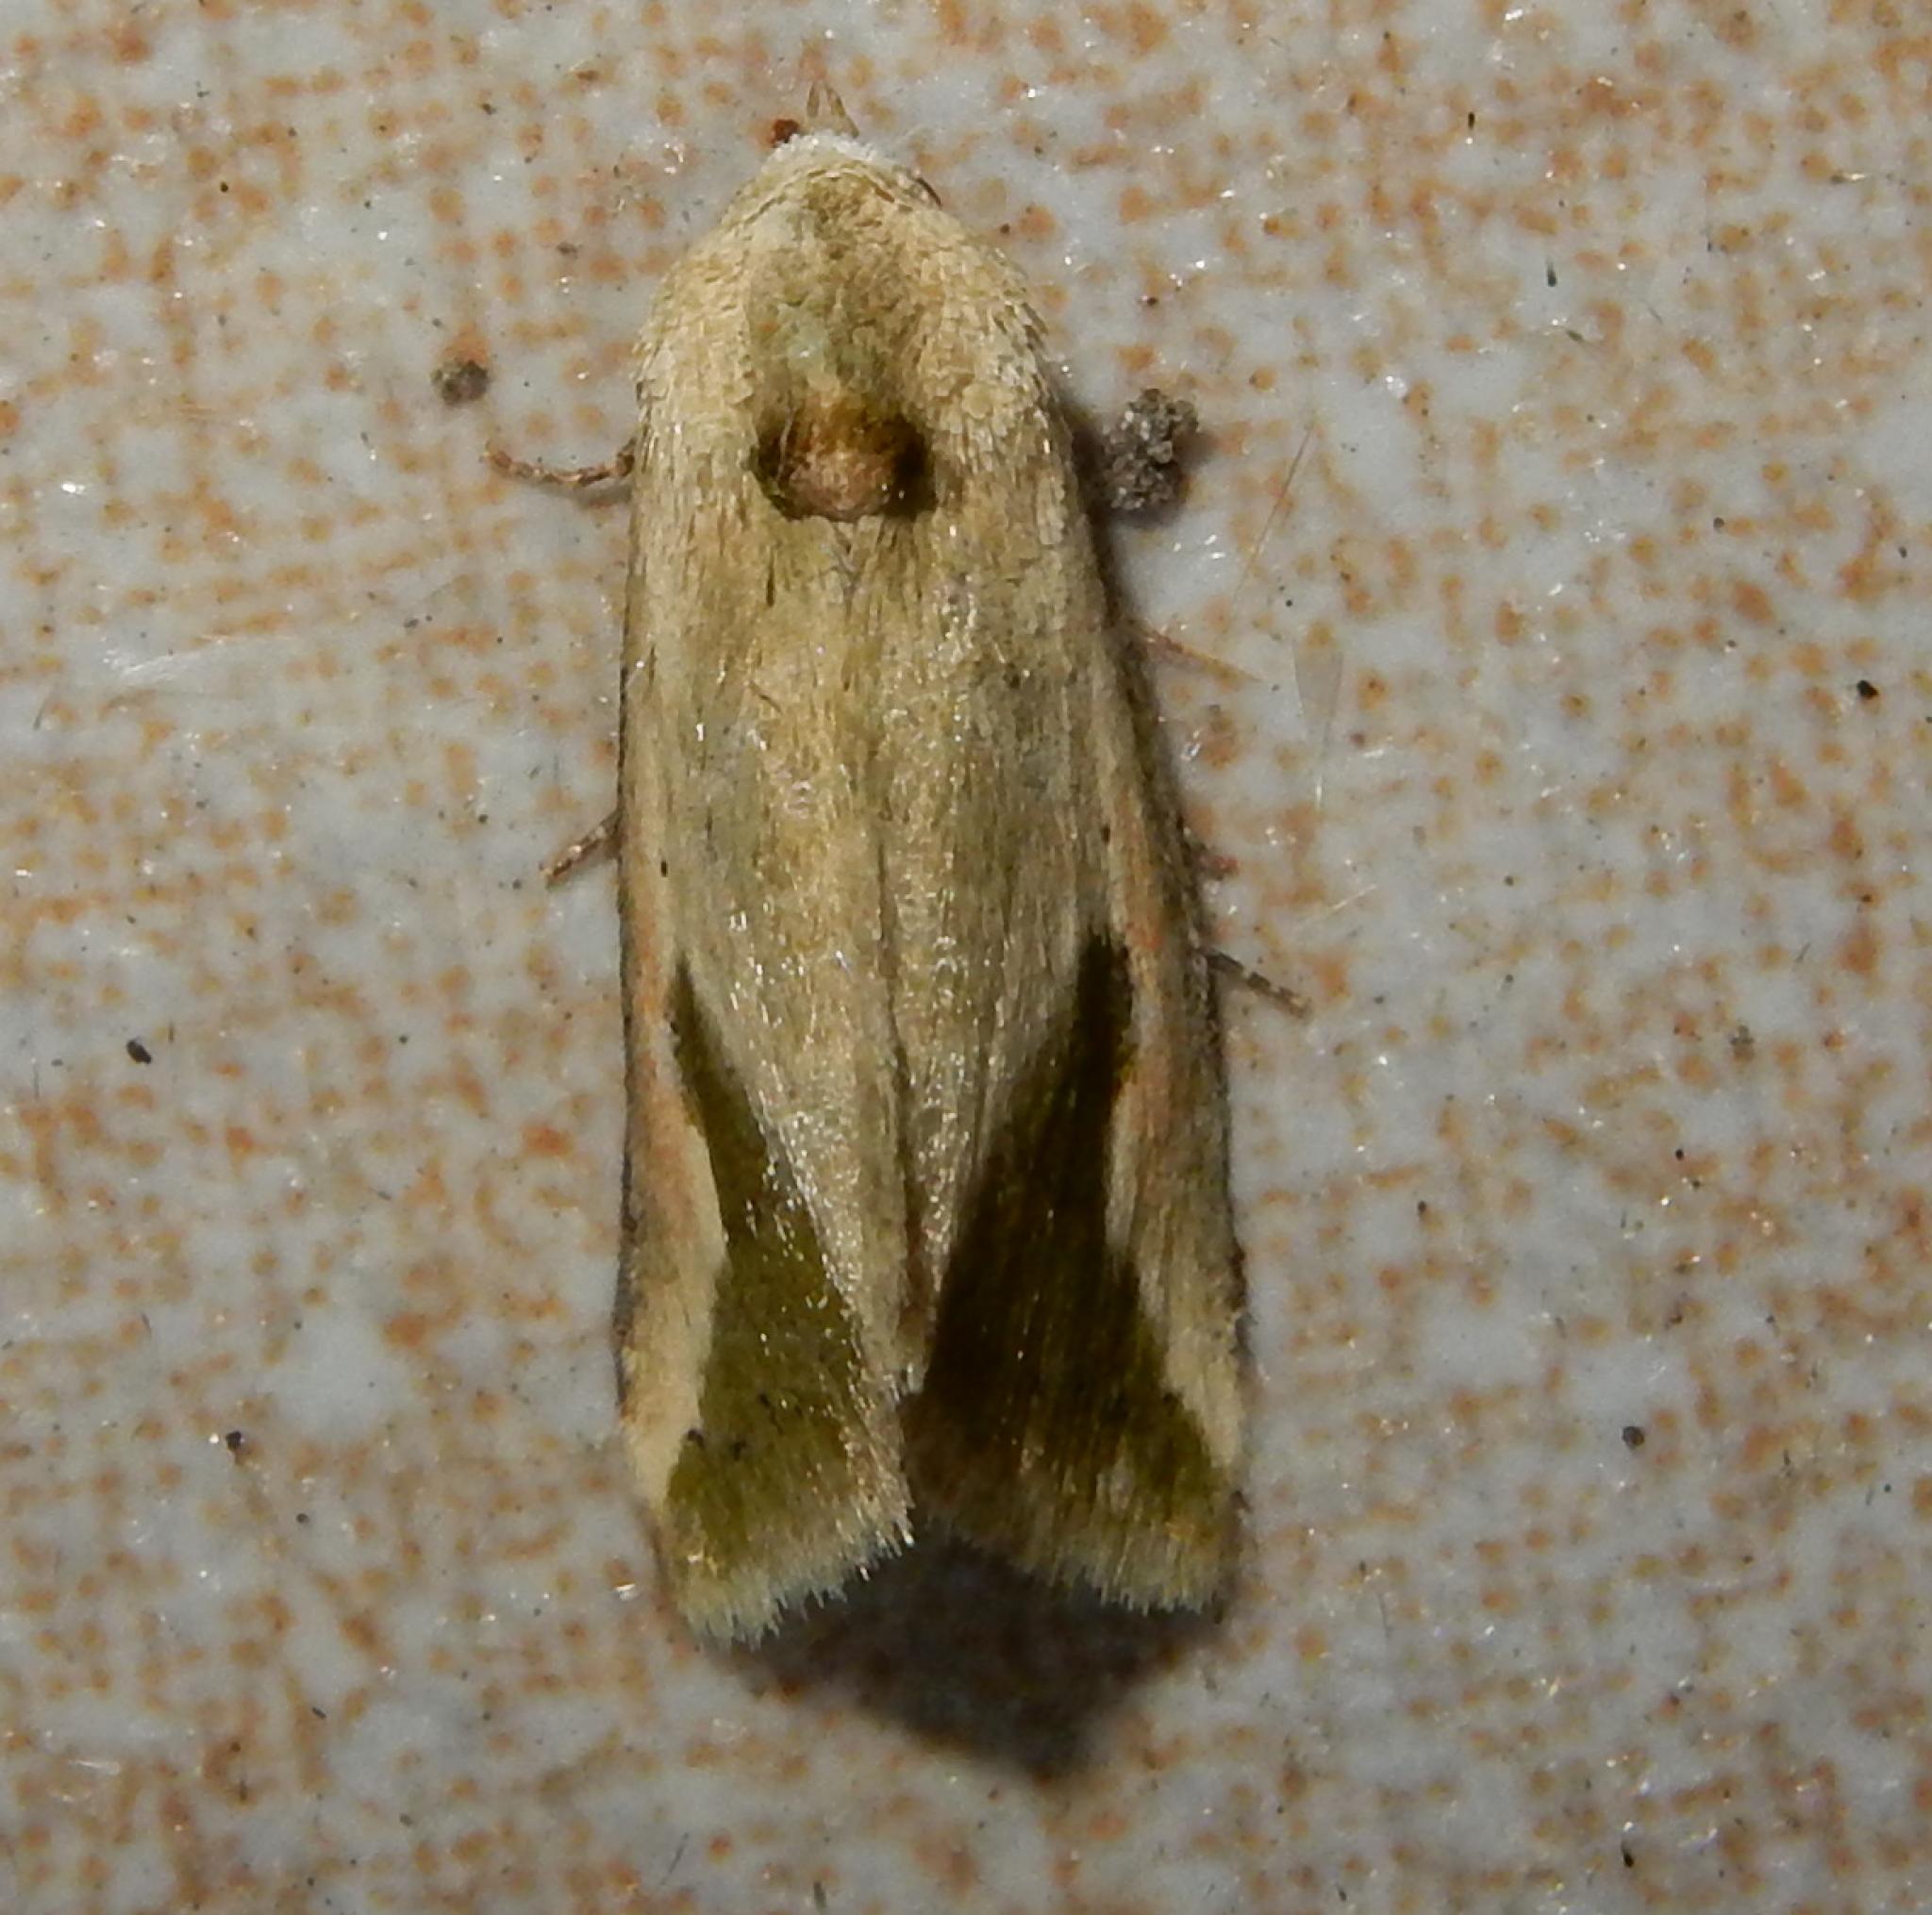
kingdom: Animalia
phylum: Arthropoda
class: Insecta
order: Lepidoptera
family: Noctuidae
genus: Autoba
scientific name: Autoba admota
